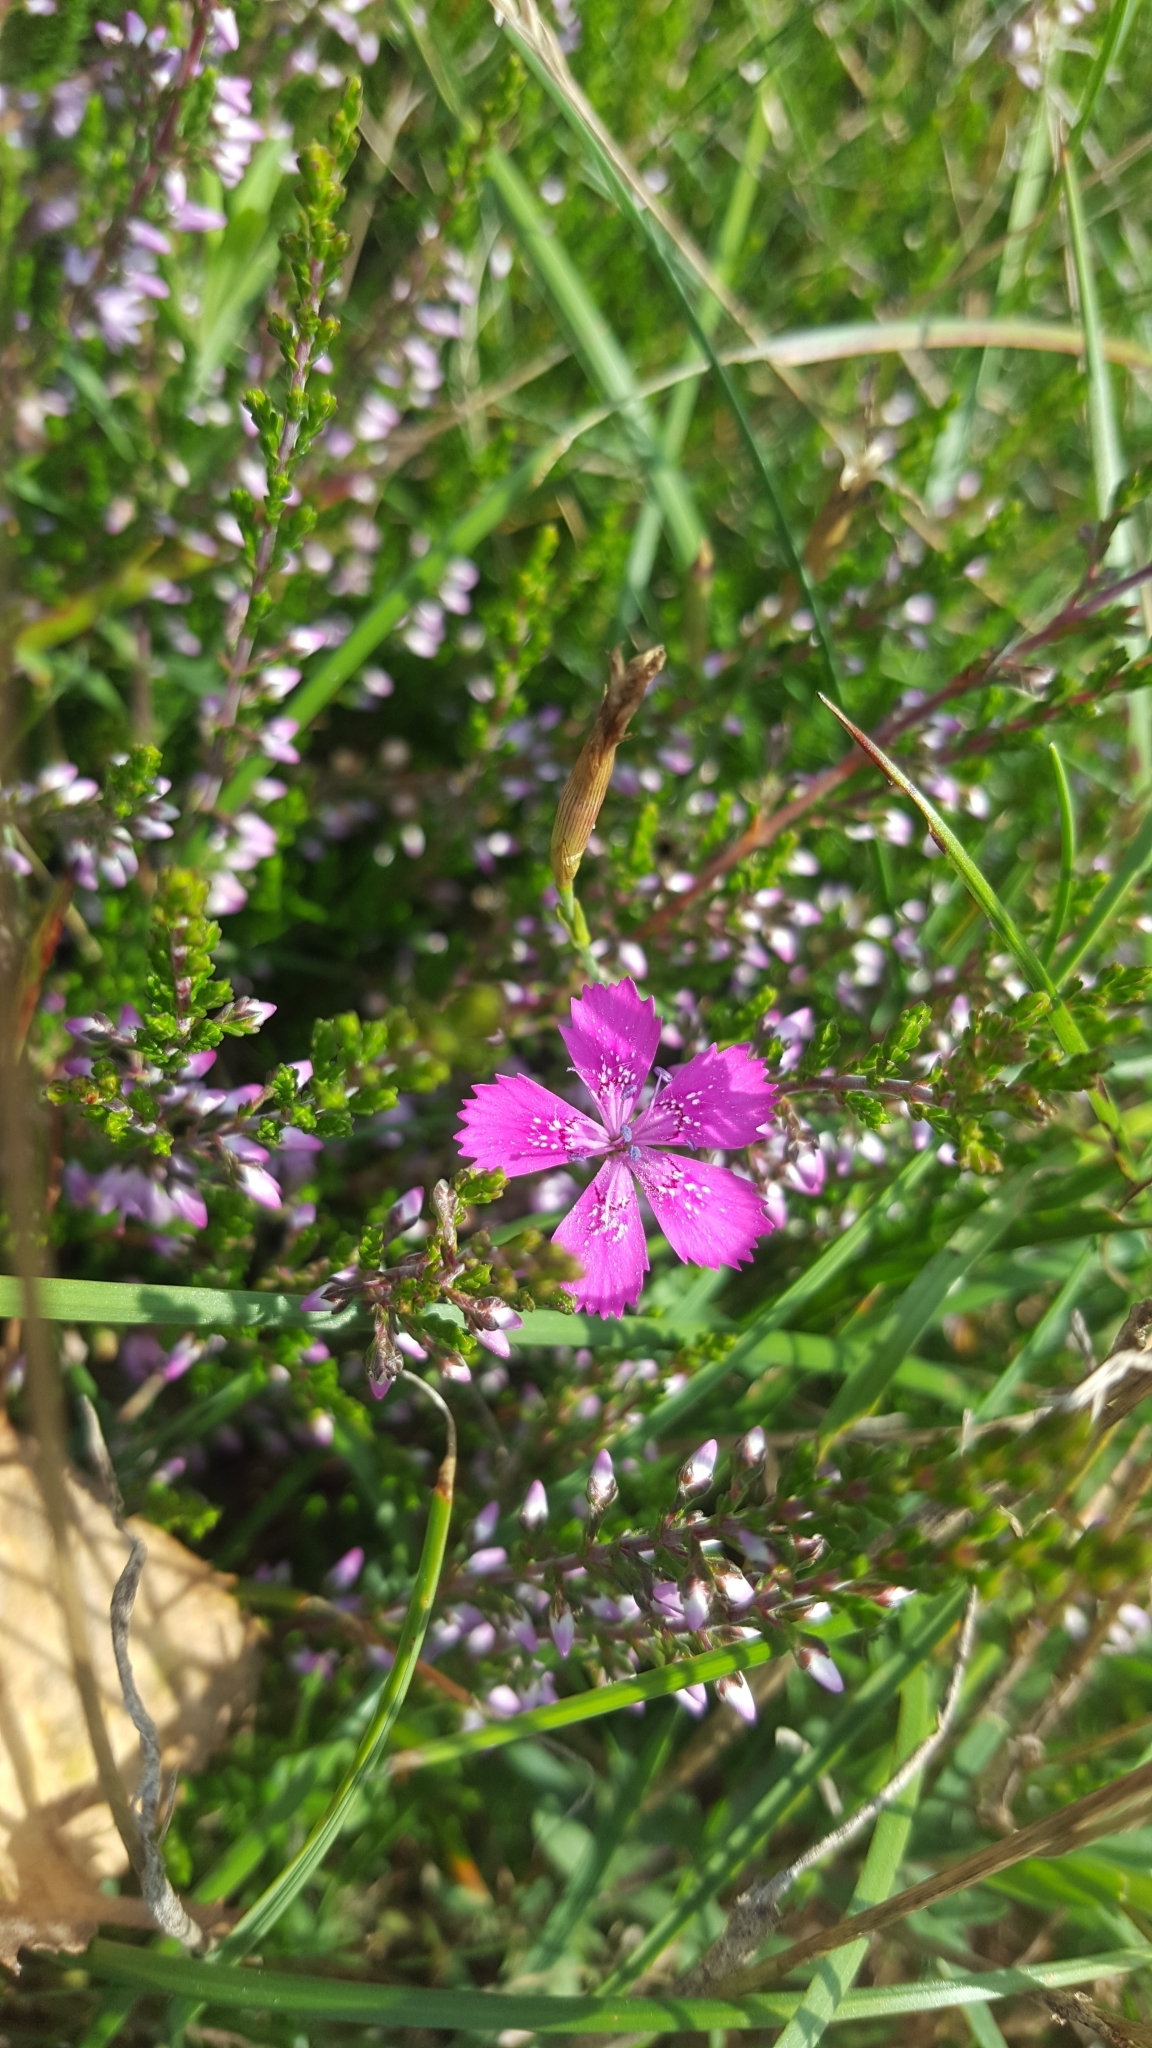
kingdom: Plantae
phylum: Tracheophyta
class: Magnoliopsida
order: Caryophyllales
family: Caryophyllaceae
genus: Dianthus
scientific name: Dianthus deltoides
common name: Maiden pink
